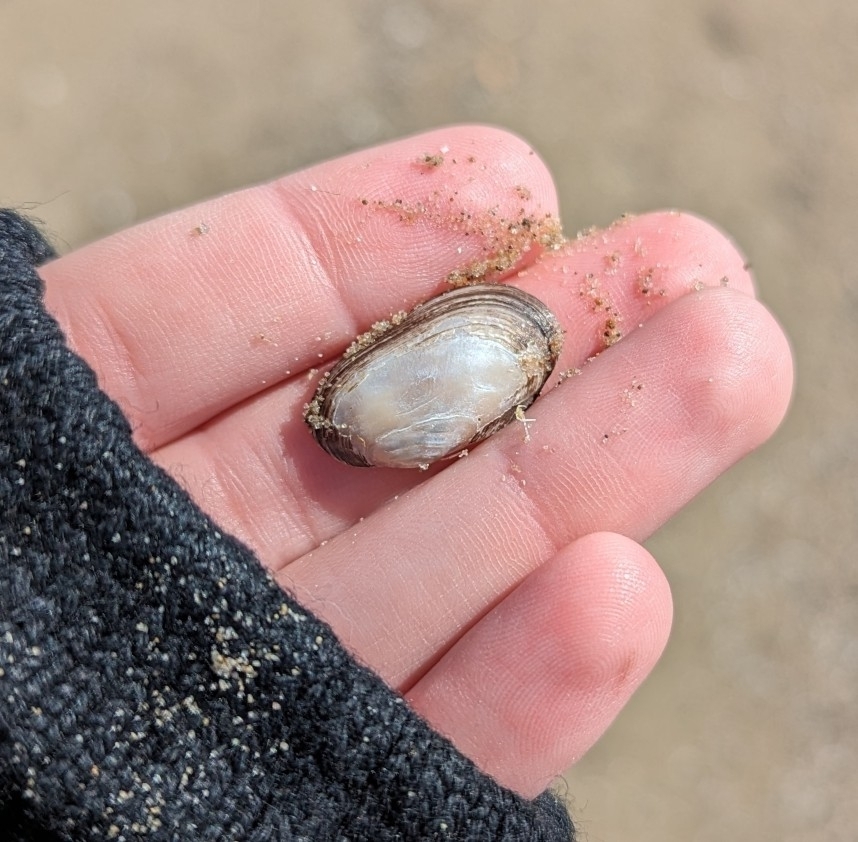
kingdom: Animalia
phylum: Mollusca
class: Bivalvia
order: Unionida
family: Unionidae
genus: Toxolasma
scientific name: Toxolasma parvum
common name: Lilliput
